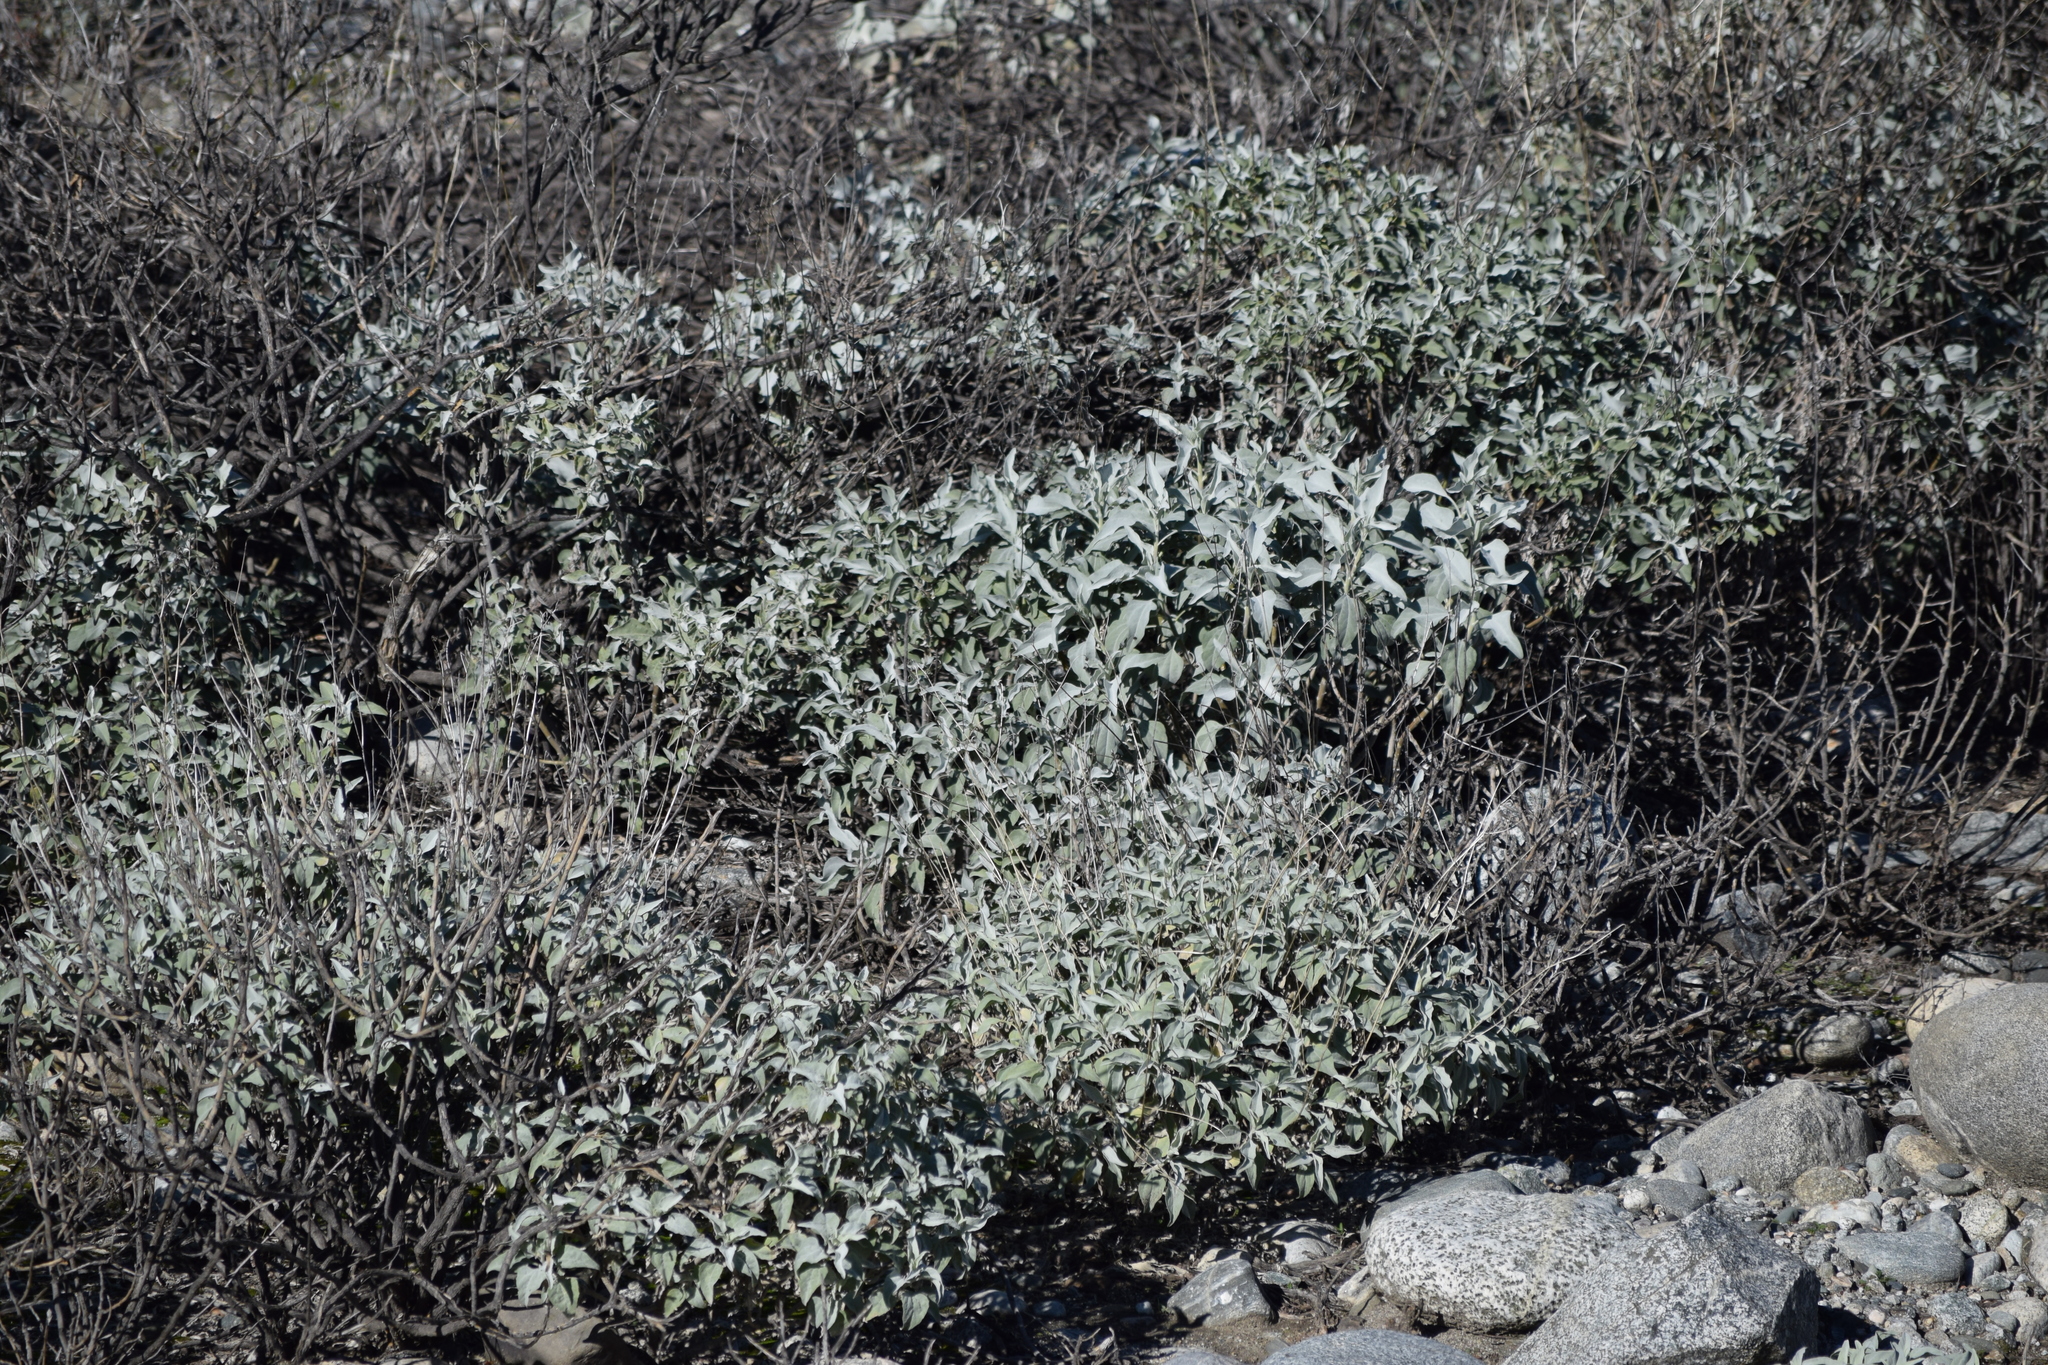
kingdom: Plantae
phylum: Tracheophyta
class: Magnoliopsida
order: Asterales
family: Asteraceae
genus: Encelia
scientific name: Encelia farinosa
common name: Brittlebush
